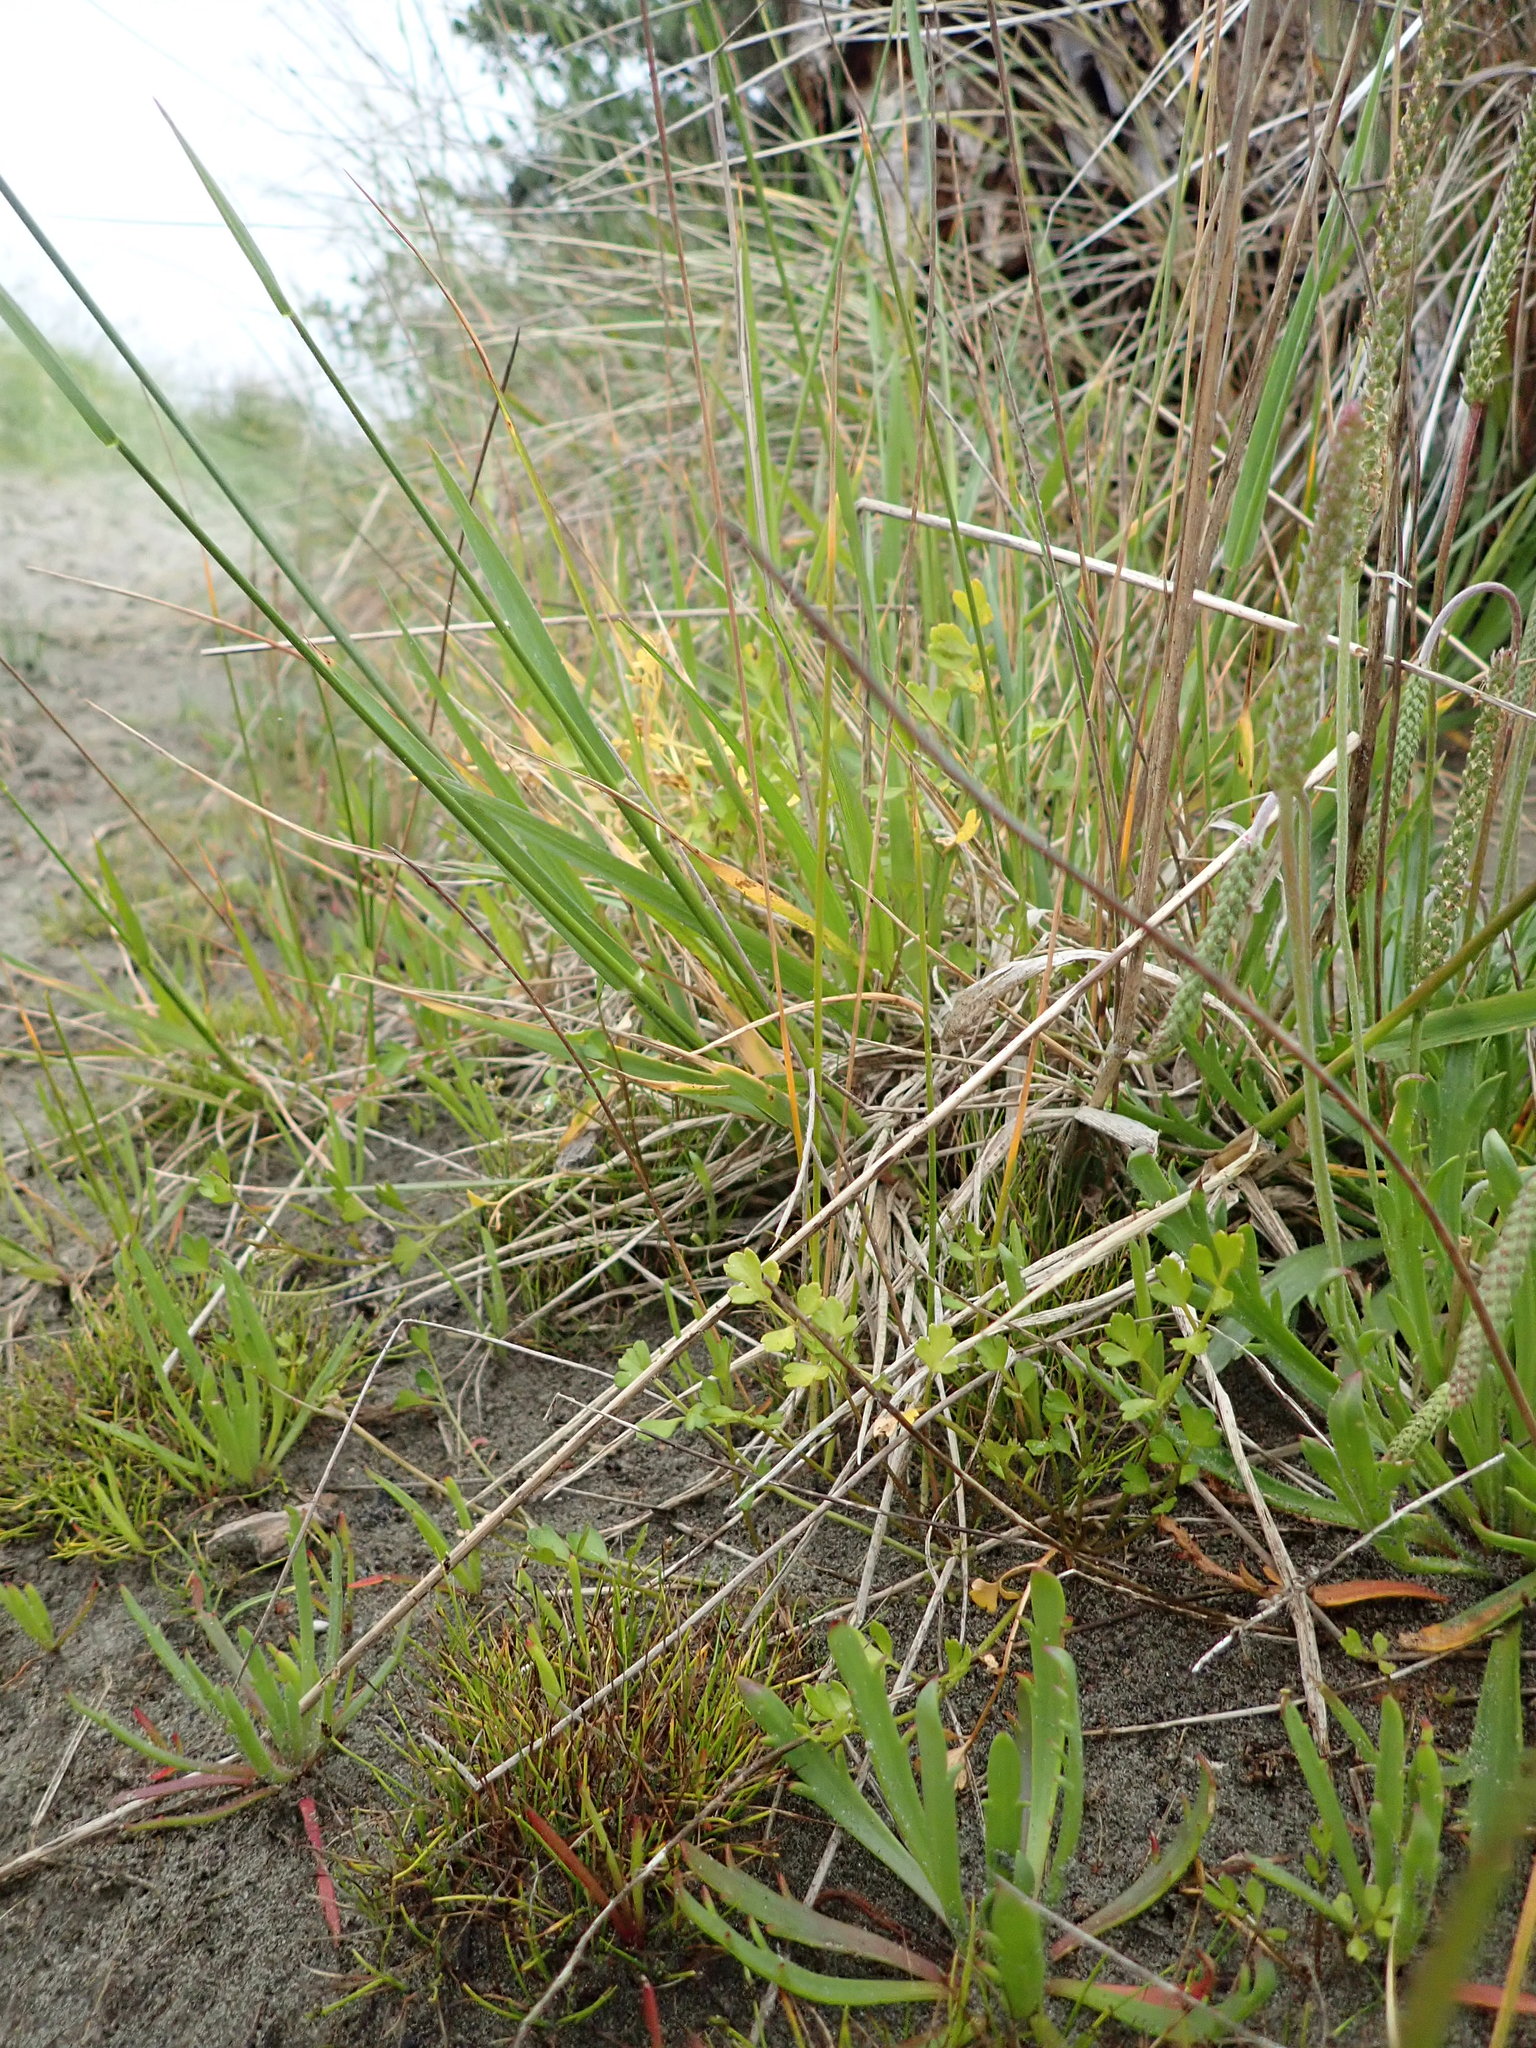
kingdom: Plantae
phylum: Tracheophyta
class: Magnoliopsida
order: Apiales
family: Apiaceae
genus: Apium
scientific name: Apium prostratum
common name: Prostrate marshwort
